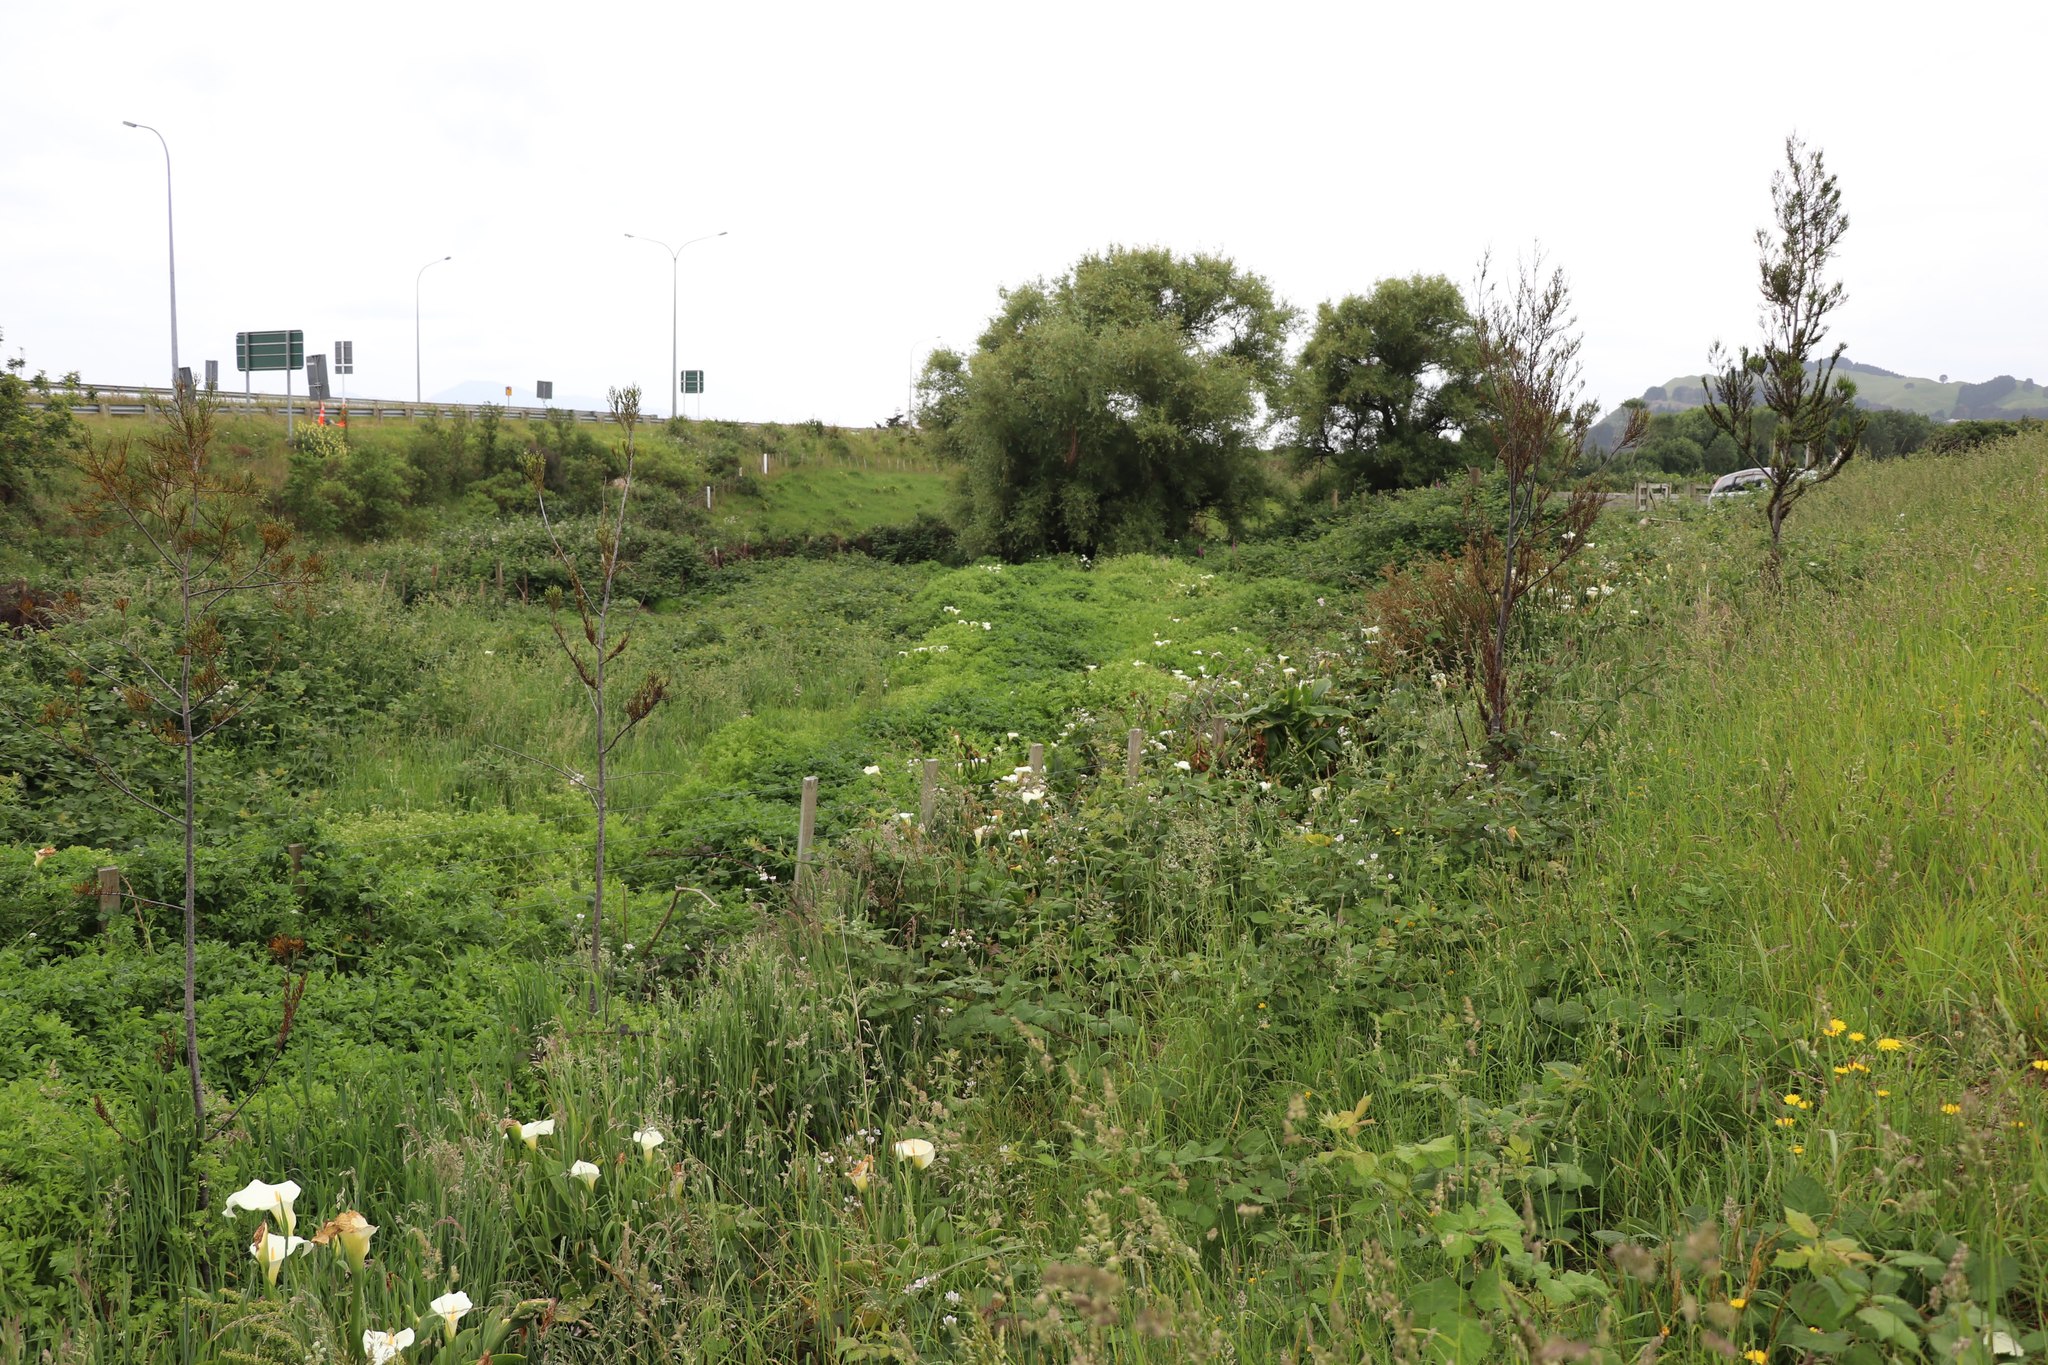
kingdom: Plantae
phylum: Tracheophyta
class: Pinopsida
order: Pinales
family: Podocarpaceae
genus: Dacrycarpus
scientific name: Dacrycarpus dacrydioides
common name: White pine
